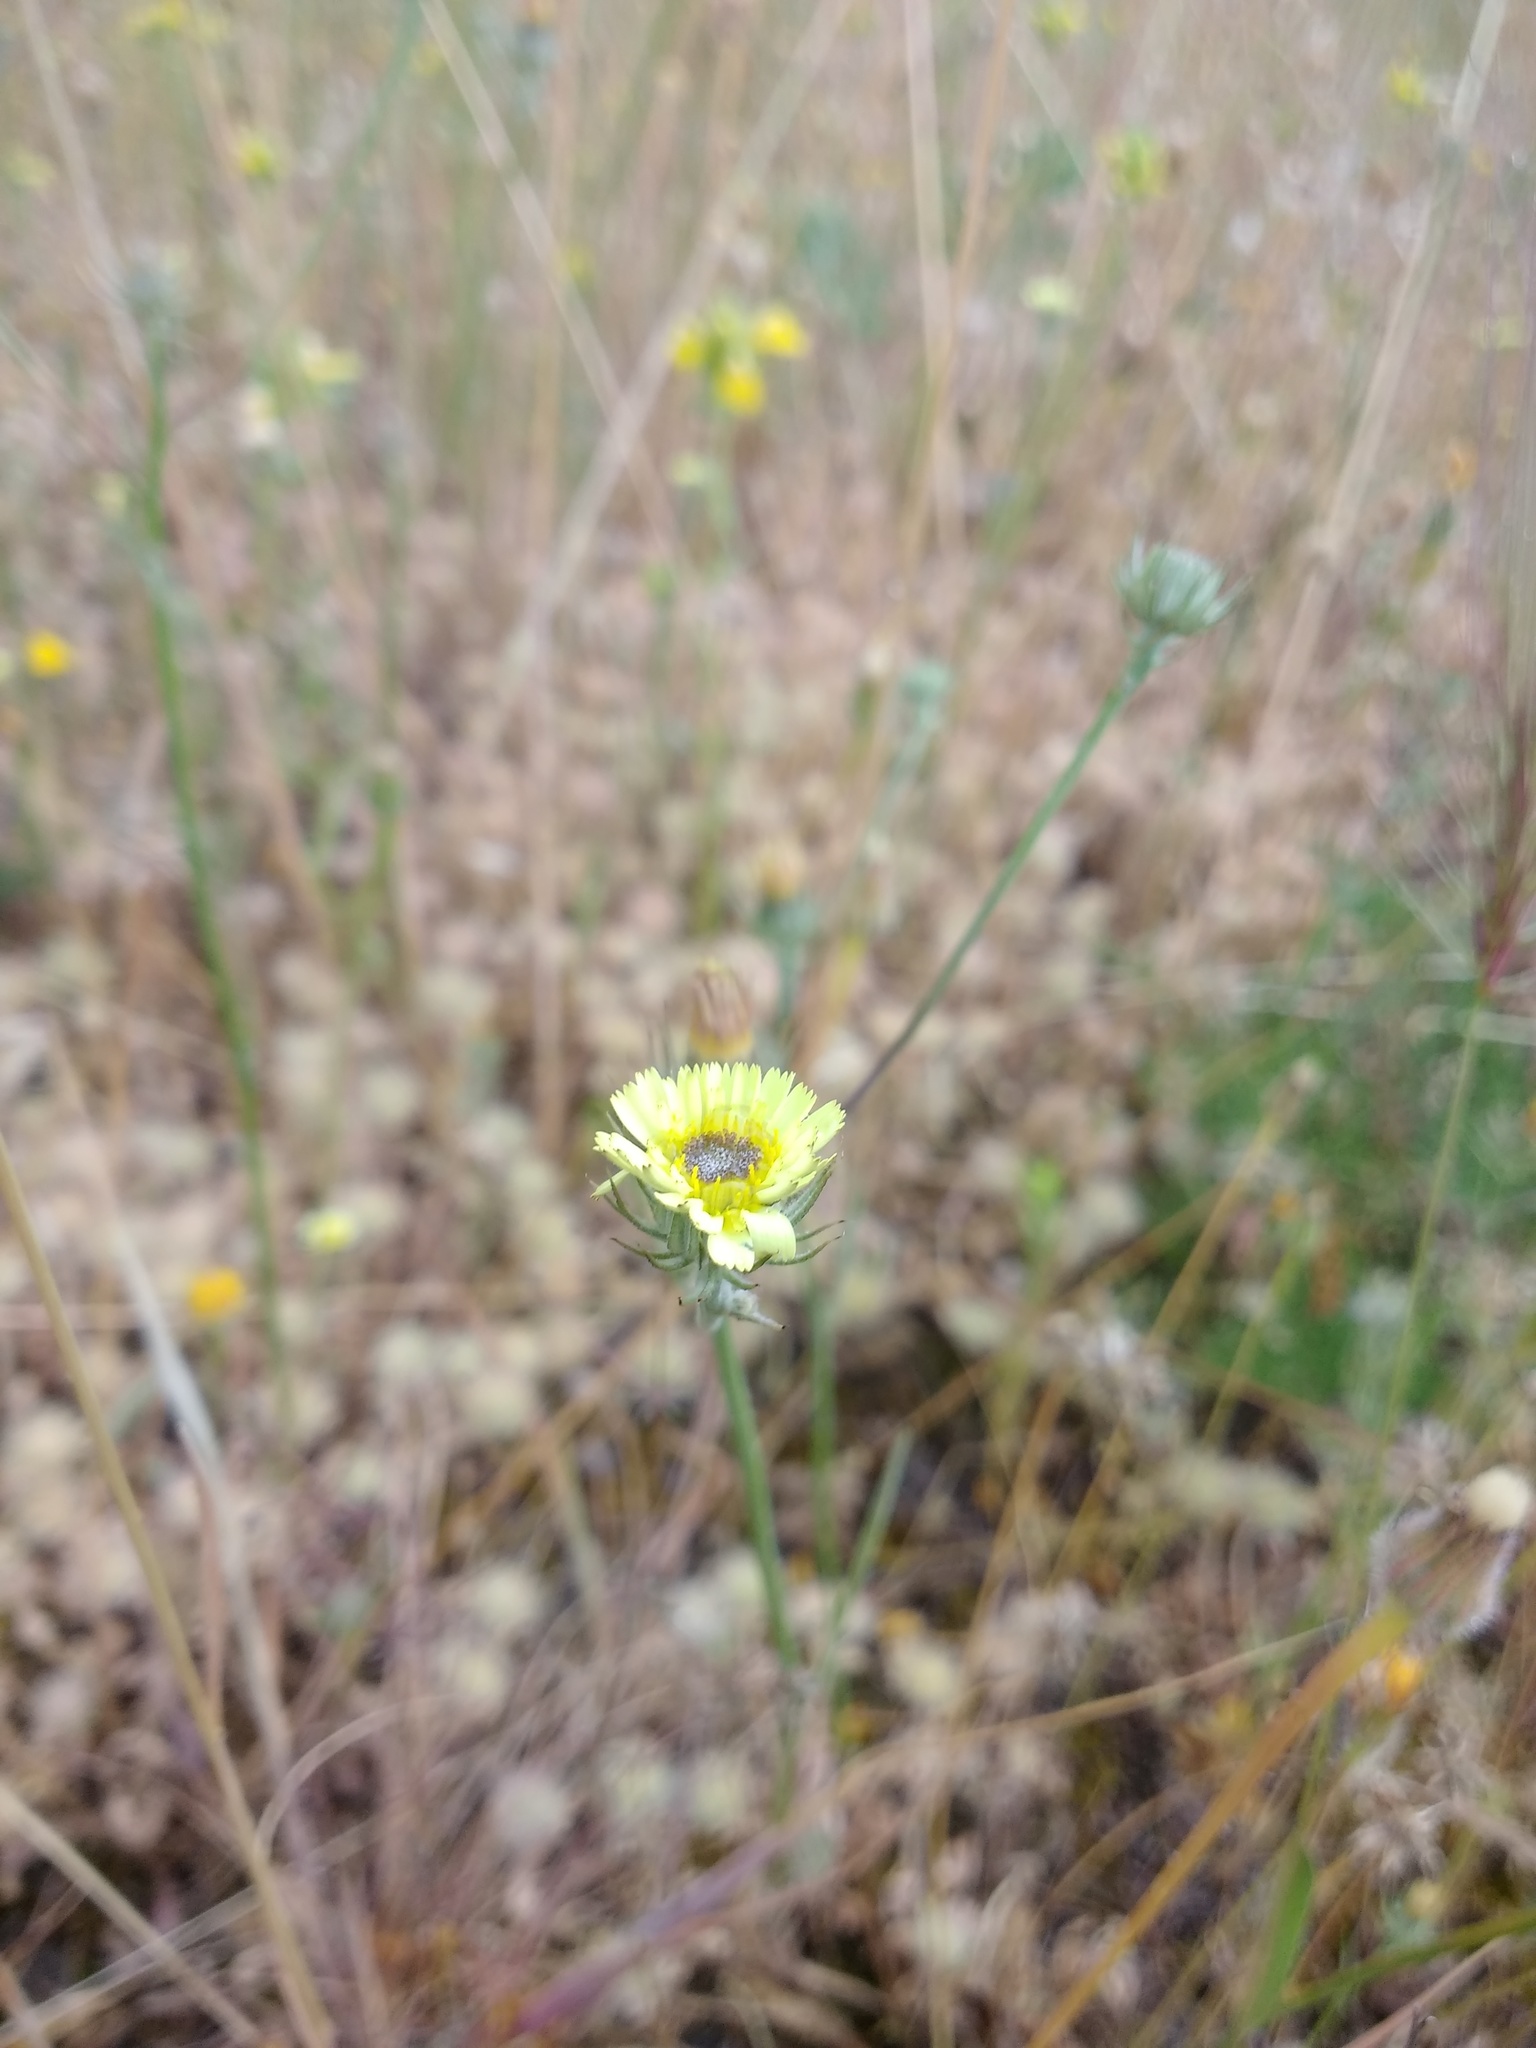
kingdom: Plantae
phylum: Tracheophyta
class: Magnoliopsida
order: Asterales
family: Asteraceae
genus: Tolpis
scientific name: Tolpis barbata
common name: Yellow hawkweed
